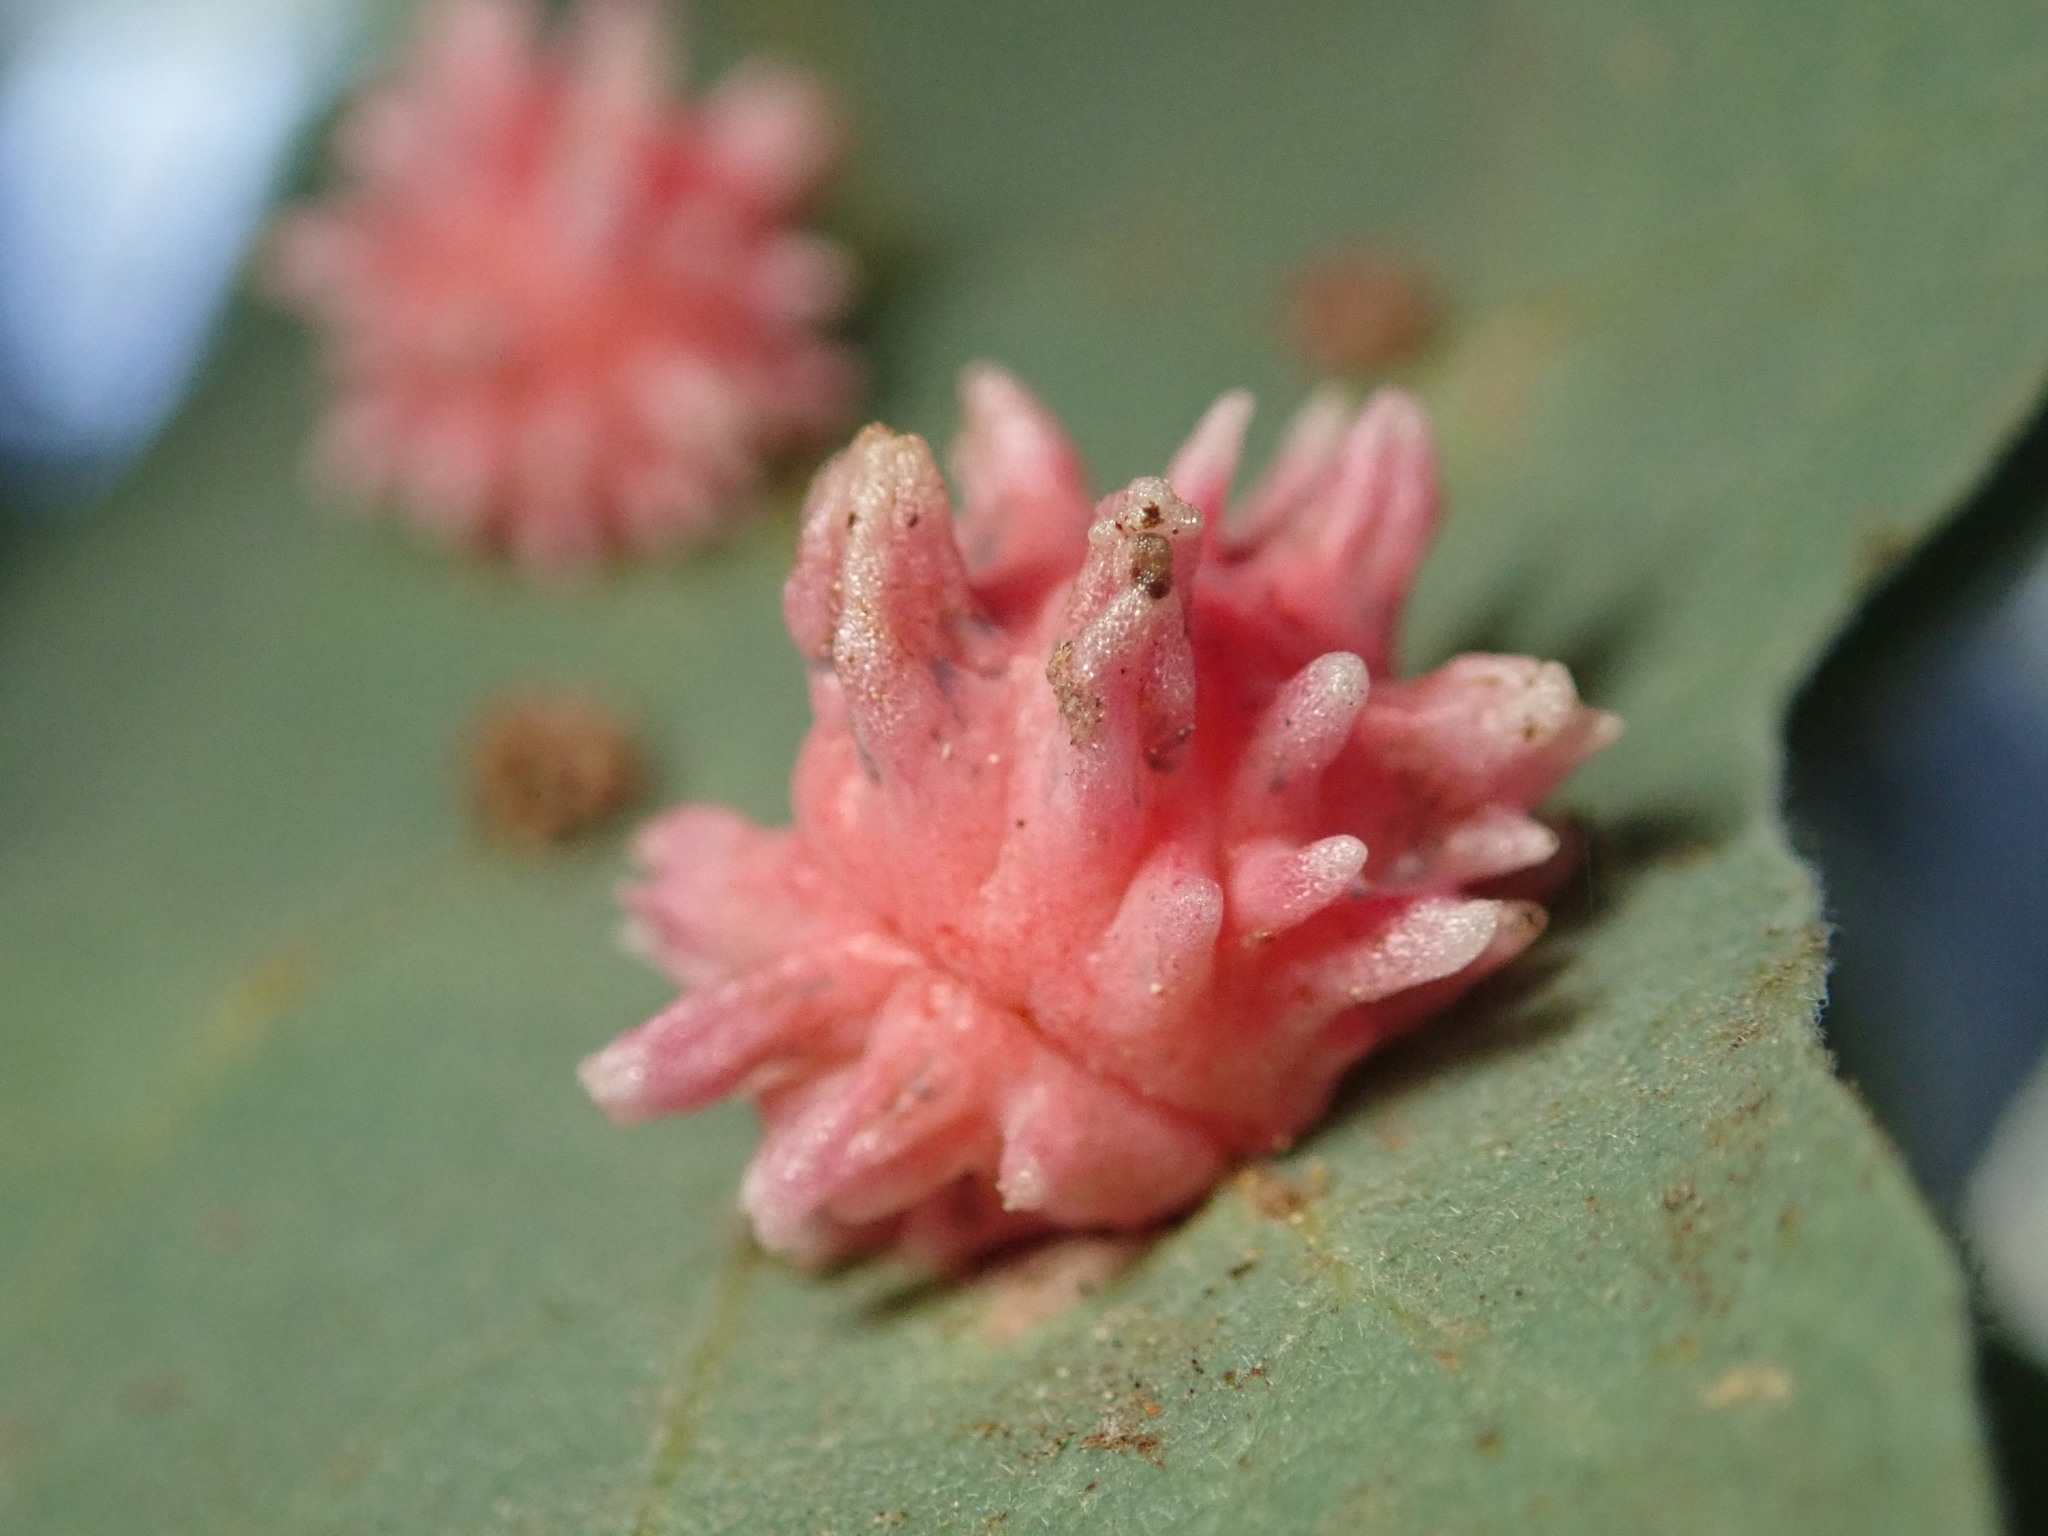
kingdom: Animalia
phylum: Arthropoda
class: Insecta
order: Hymenoptera
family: Cynipidae
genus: Cynips
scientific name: Cynips
